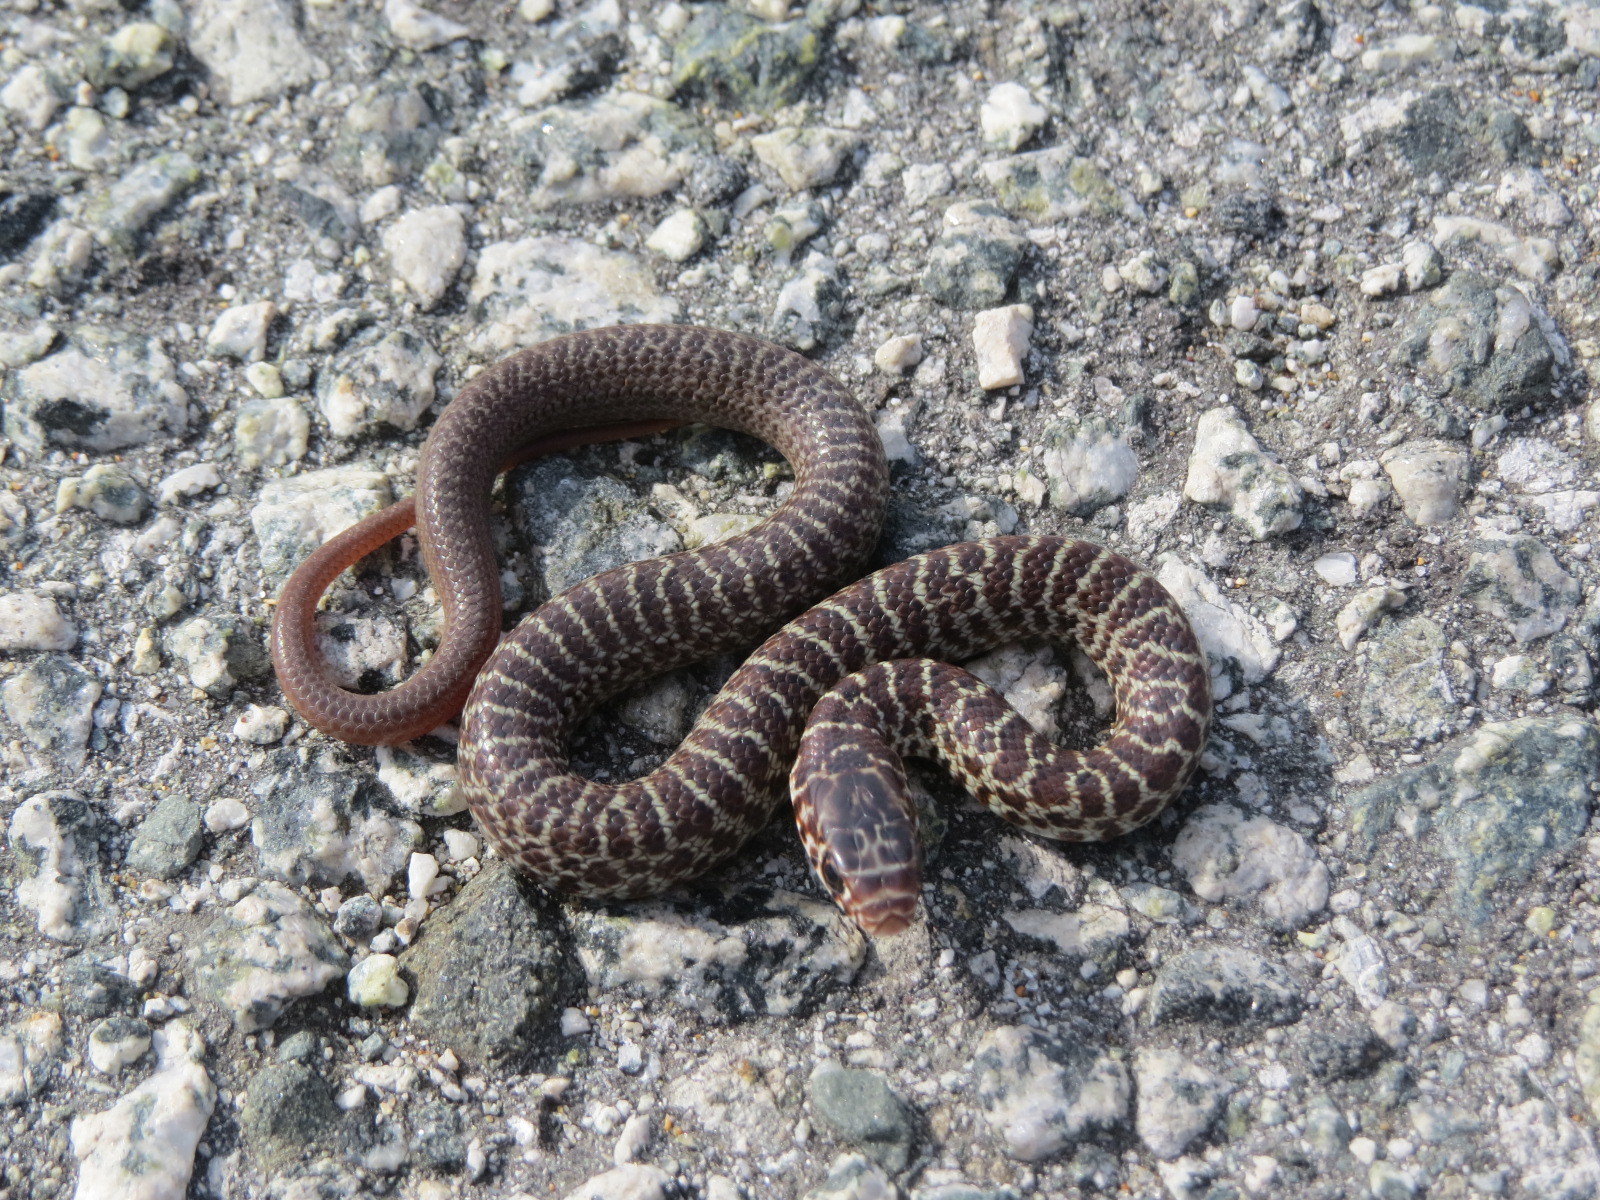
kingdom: Animalia
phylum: Chordata
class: Squamata
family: Colubridae
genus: Coluber
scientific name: Coluber constrictor
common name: Eastern racer
